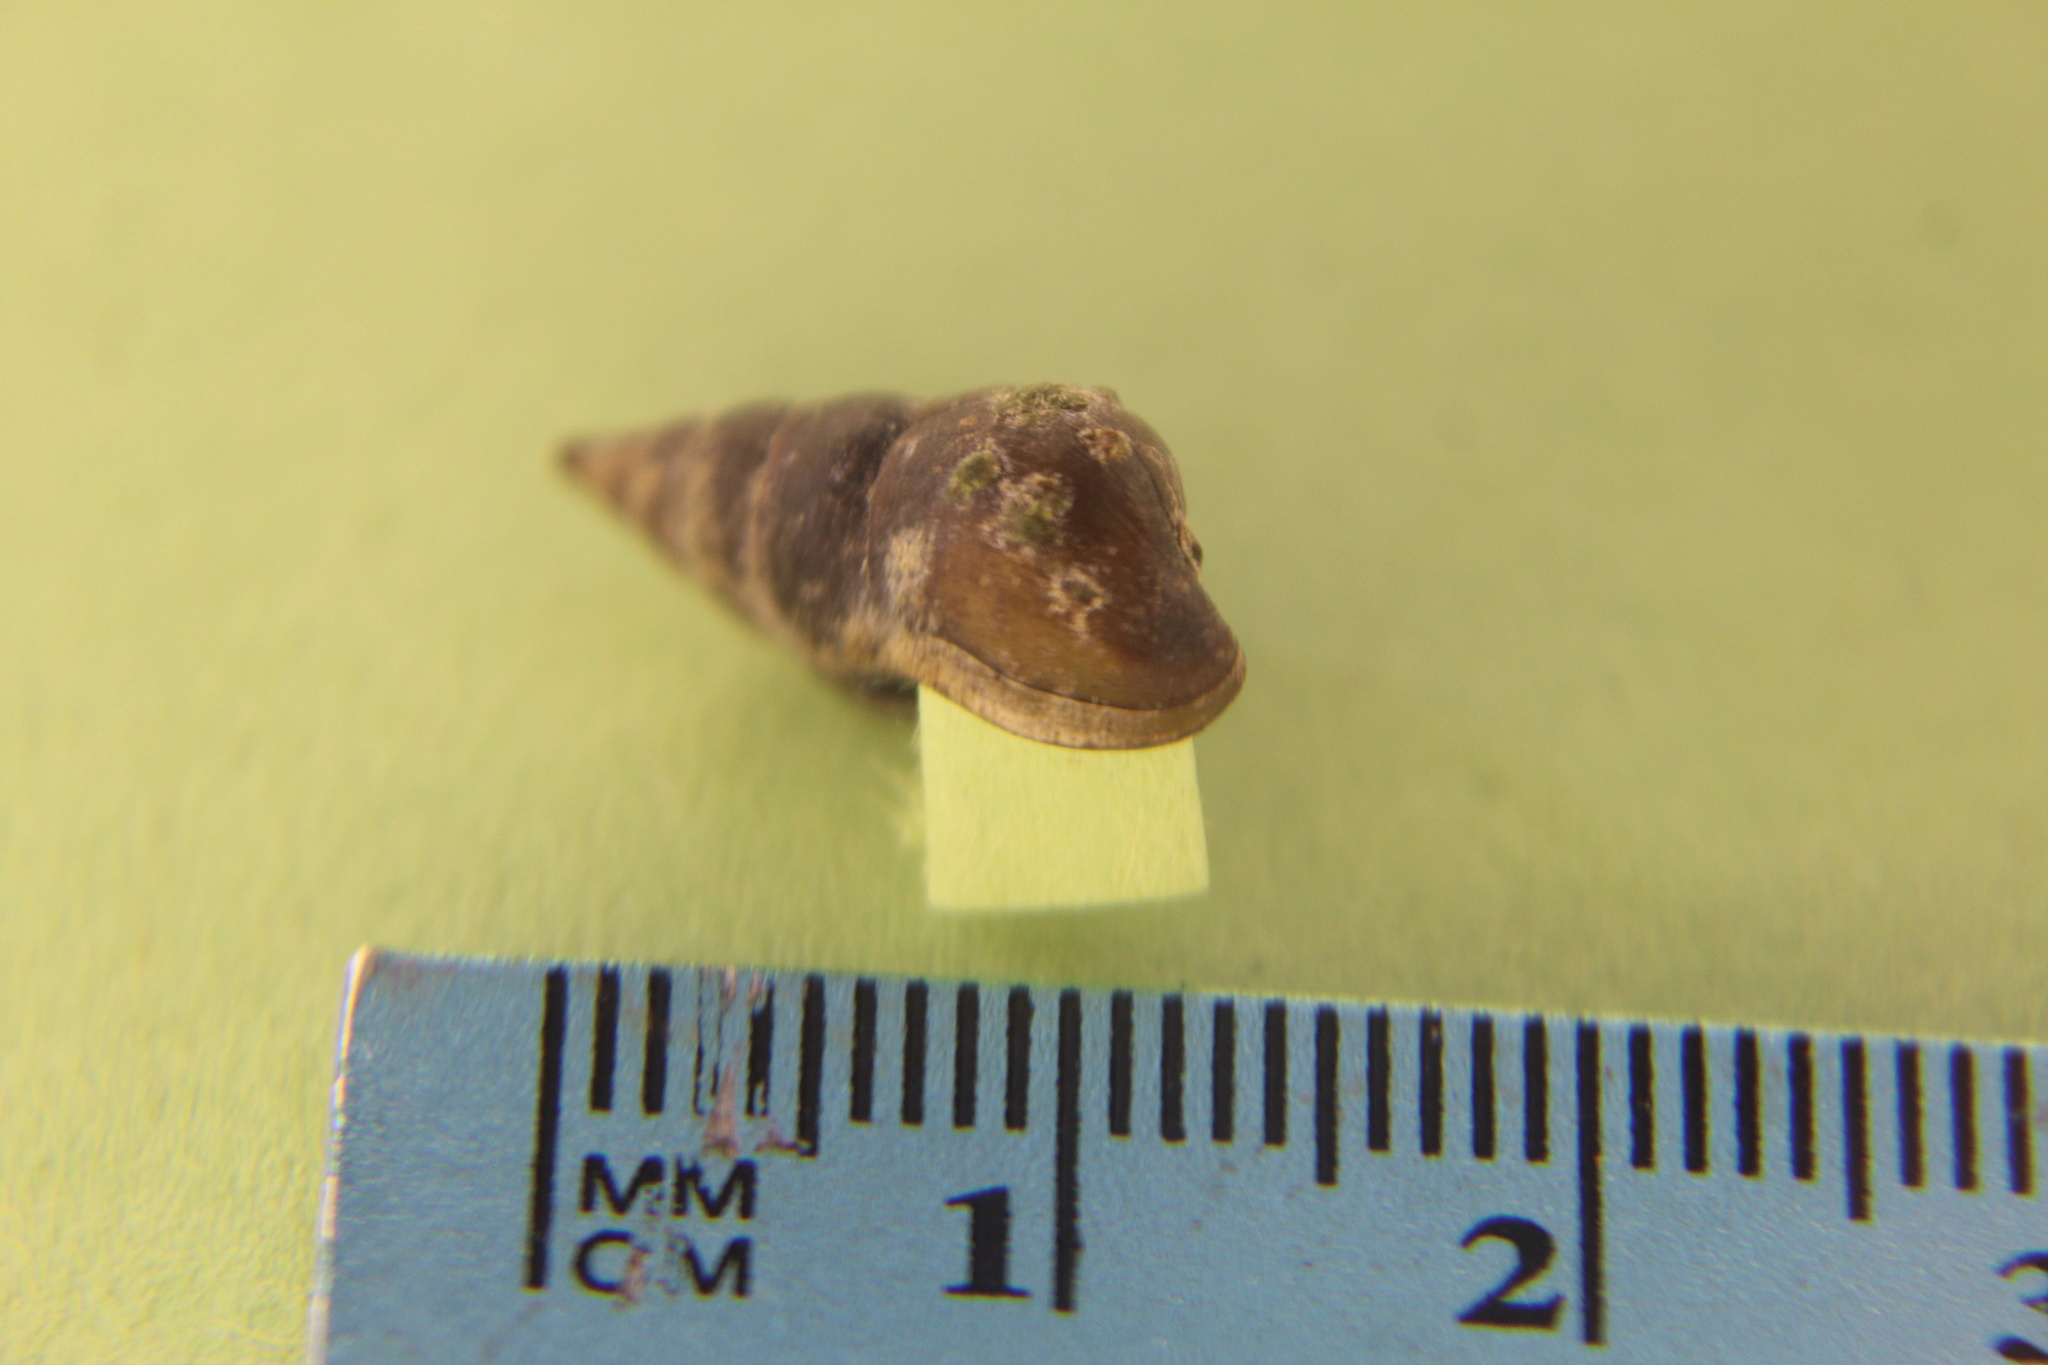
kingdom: Animalia
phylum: Mollusca
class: Gastropoda
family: Pleuroceridae
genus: Elimia
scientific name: Elimia livescens
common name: Liver elimia
